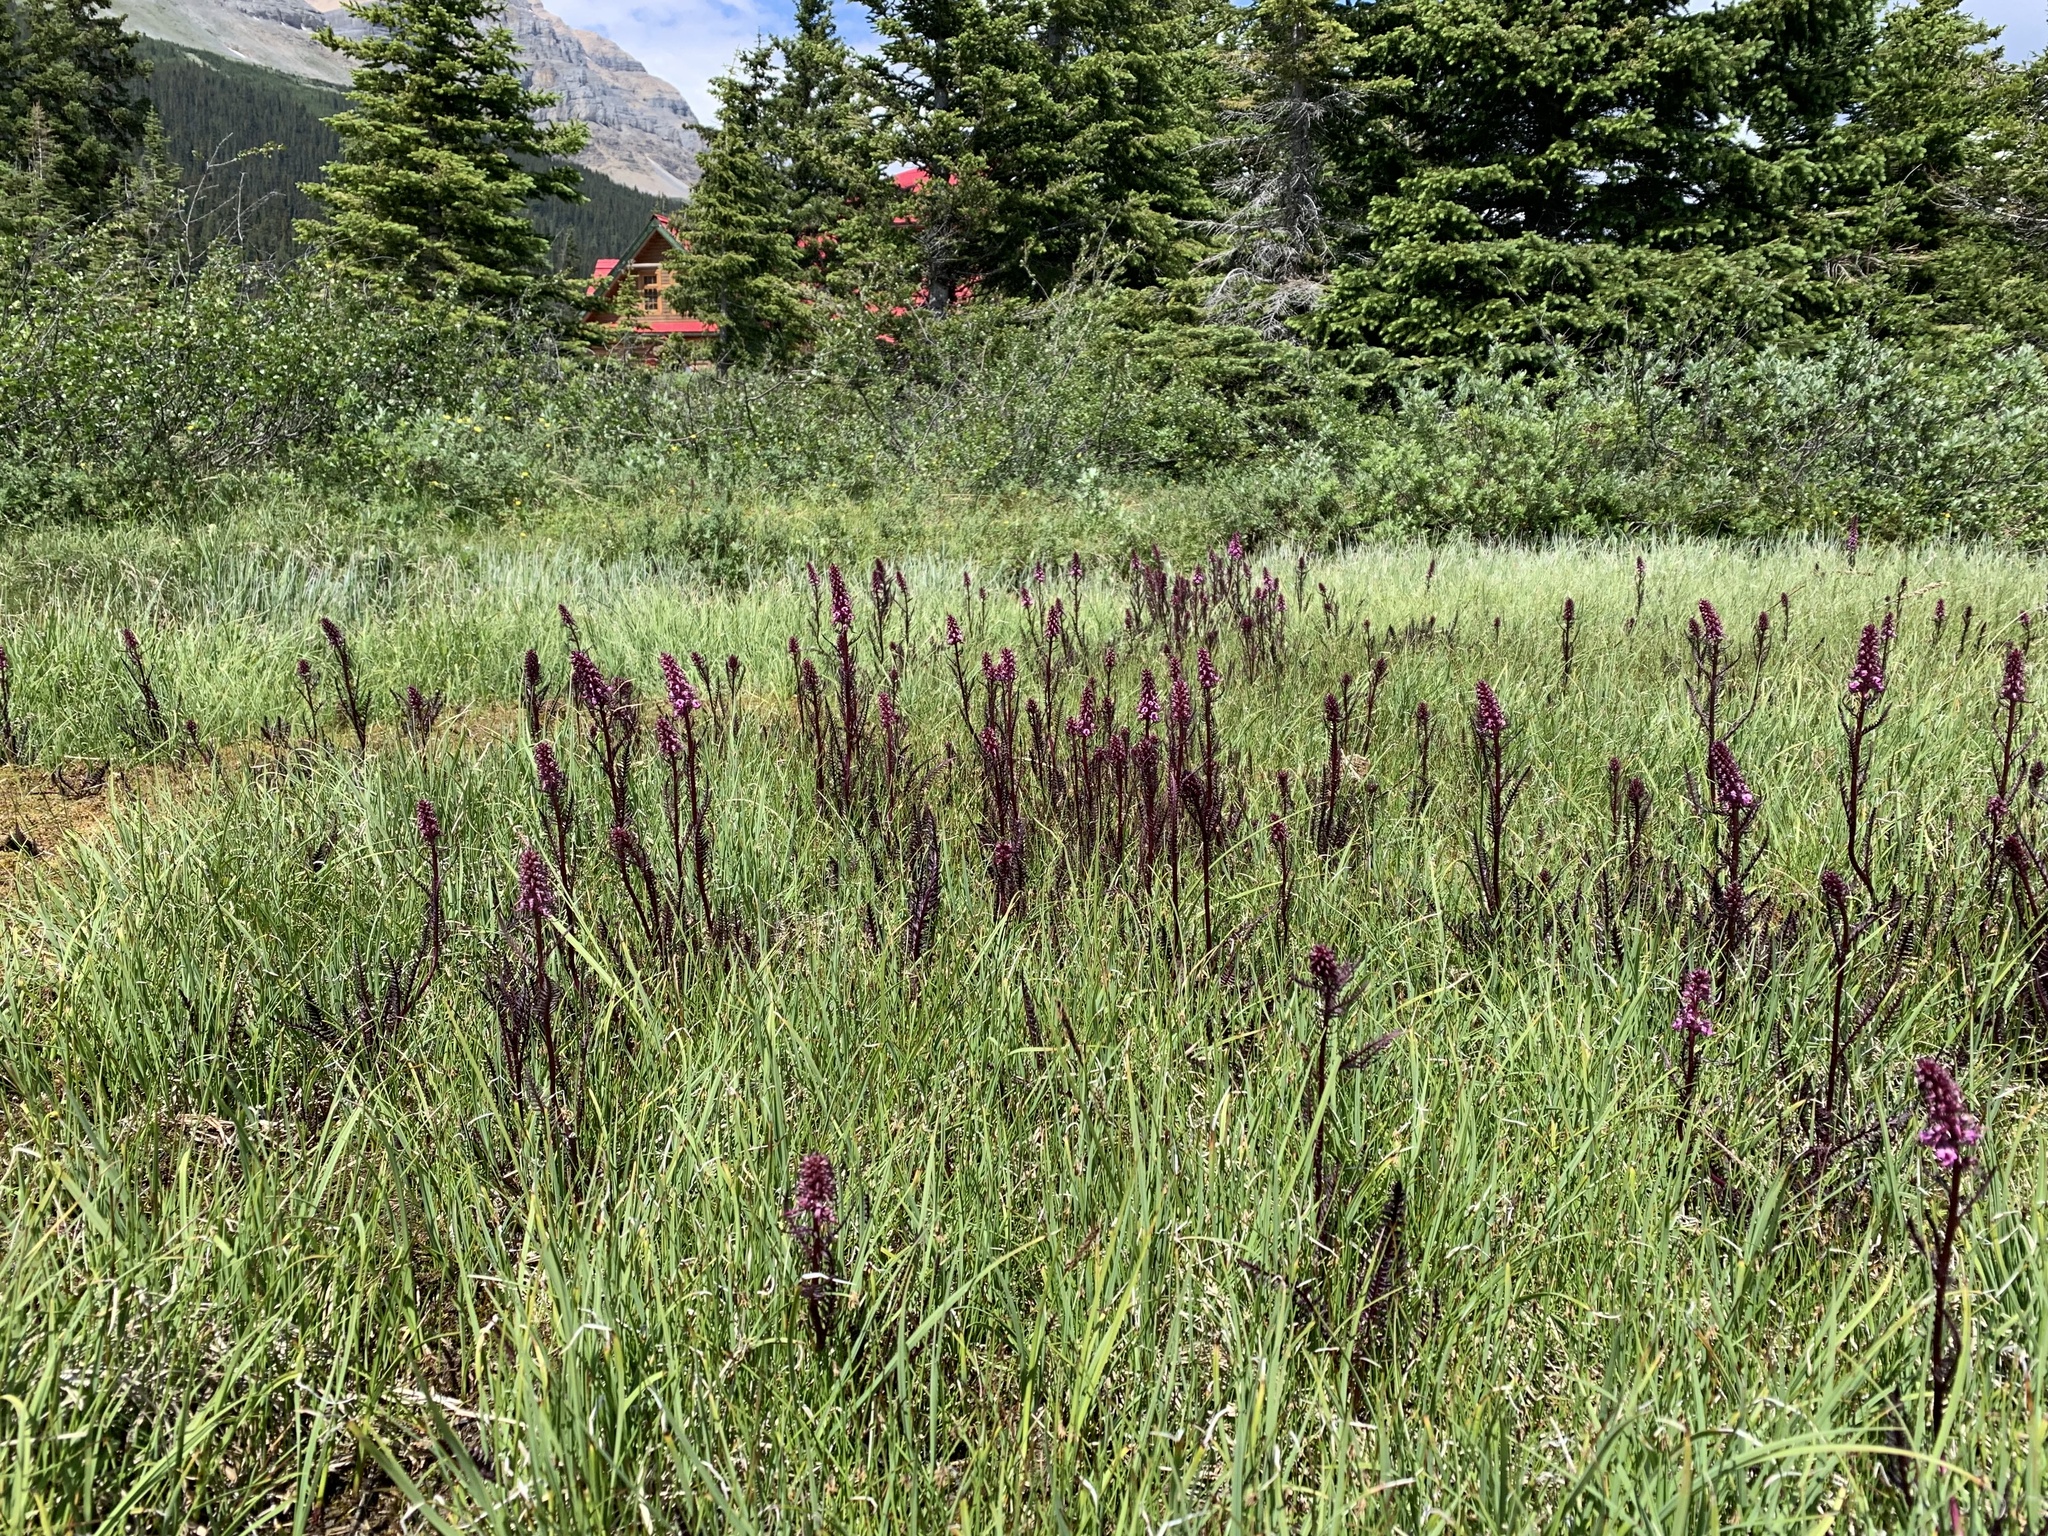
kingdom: Plantae
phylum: Tracheophyta
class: Magnoliopsida
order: Lamiales
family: Orobanchaceae
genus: Pedicularis
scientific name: Pedicularis groenlandica
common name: Elephant's-head
